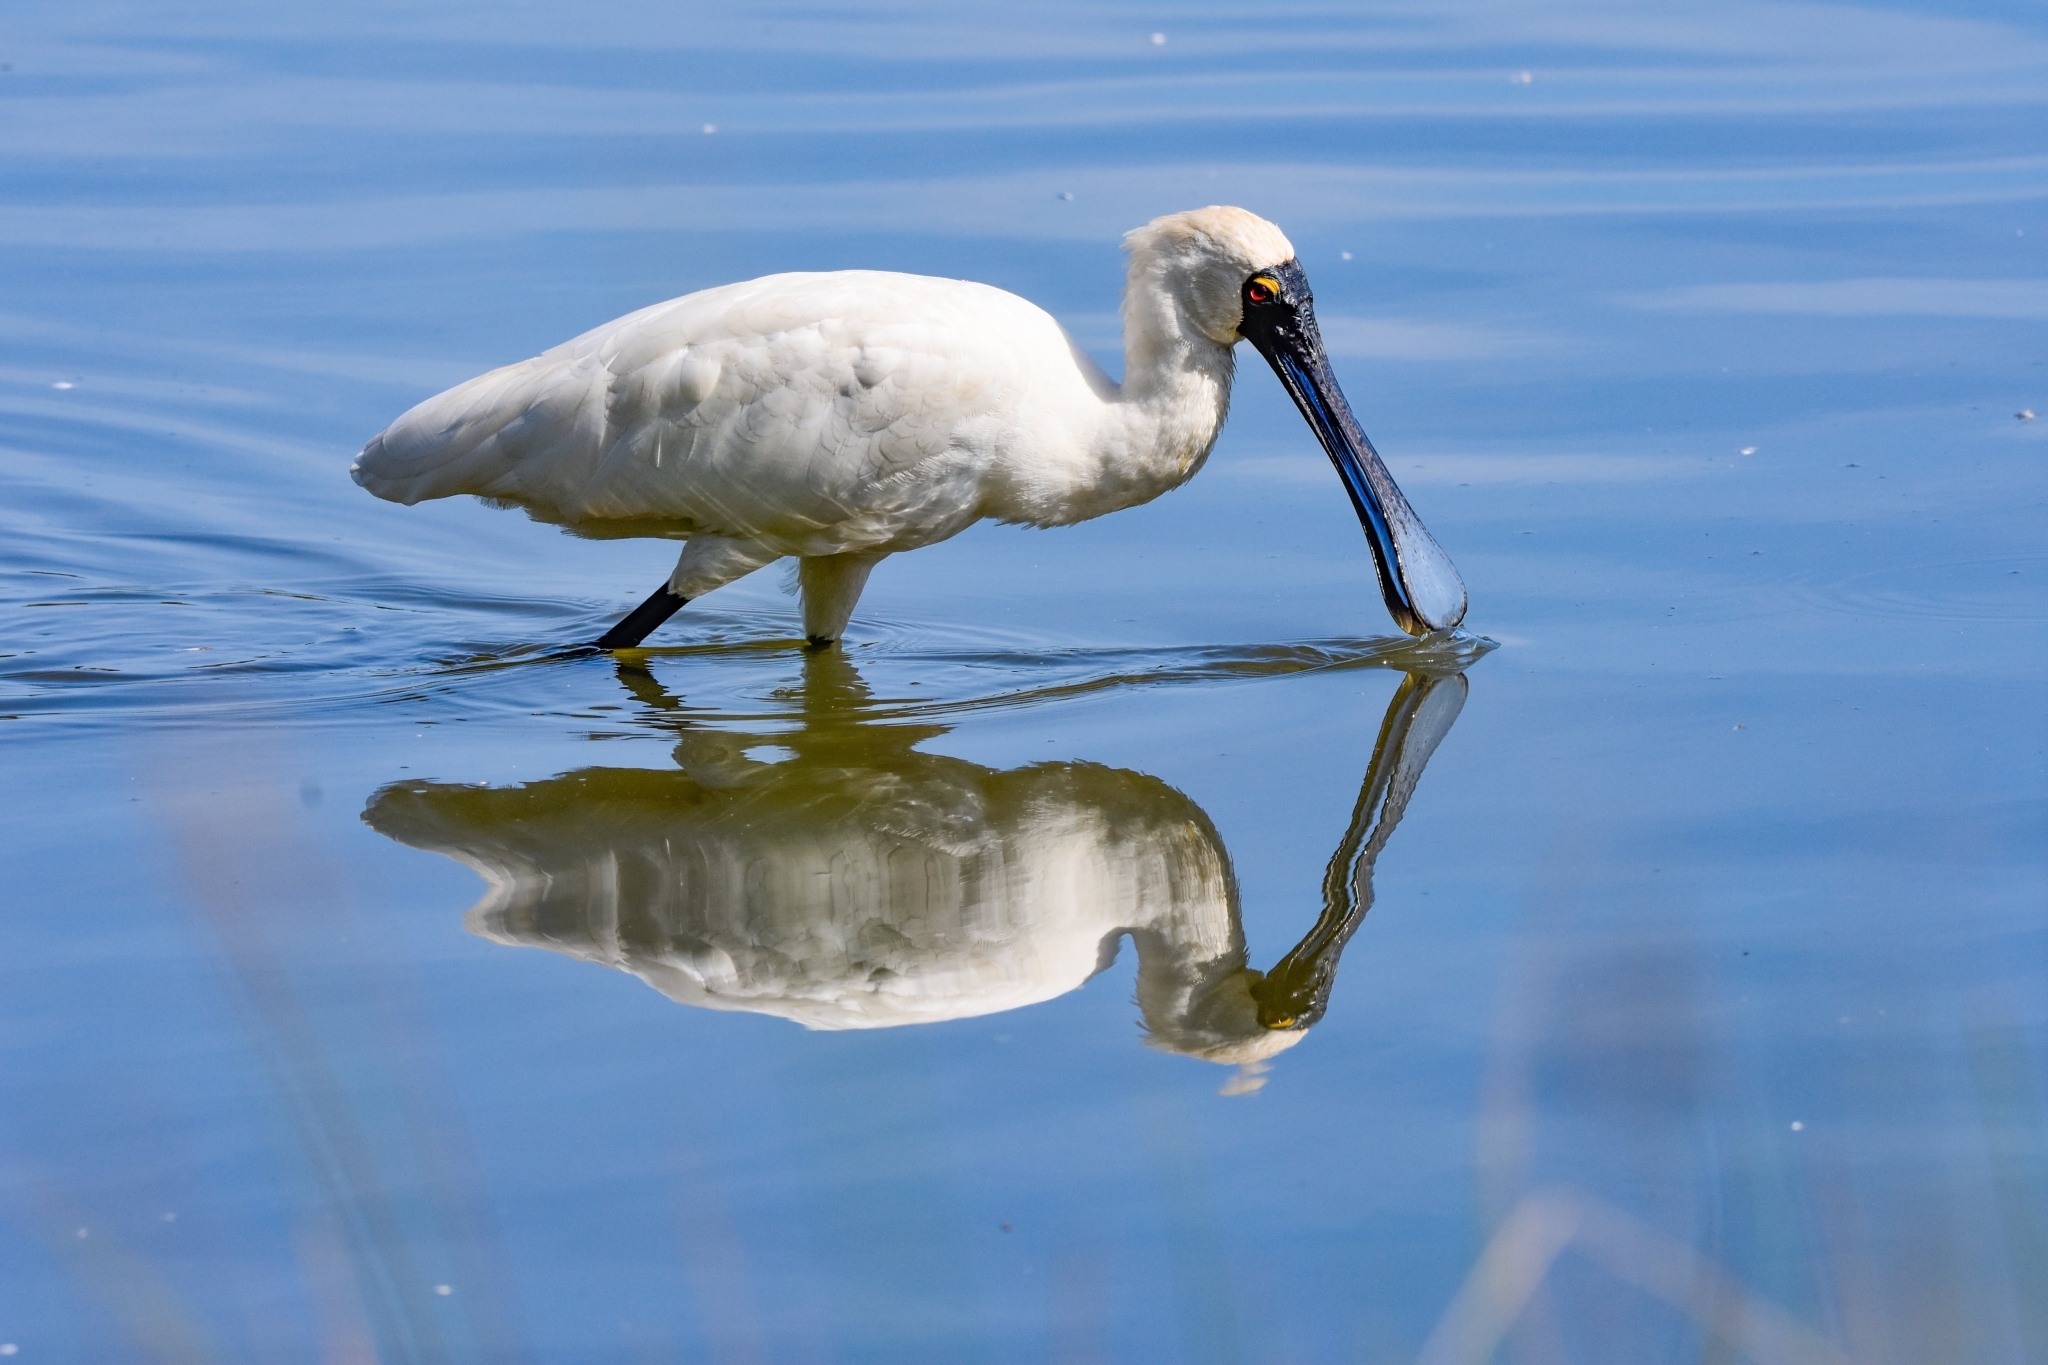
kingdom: Animalia
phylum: Chordata
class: Aves
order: Pelecaniformes
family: Threskiornithidae
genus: Platalea
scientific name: Platalea regia
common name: Royal spoonbill
